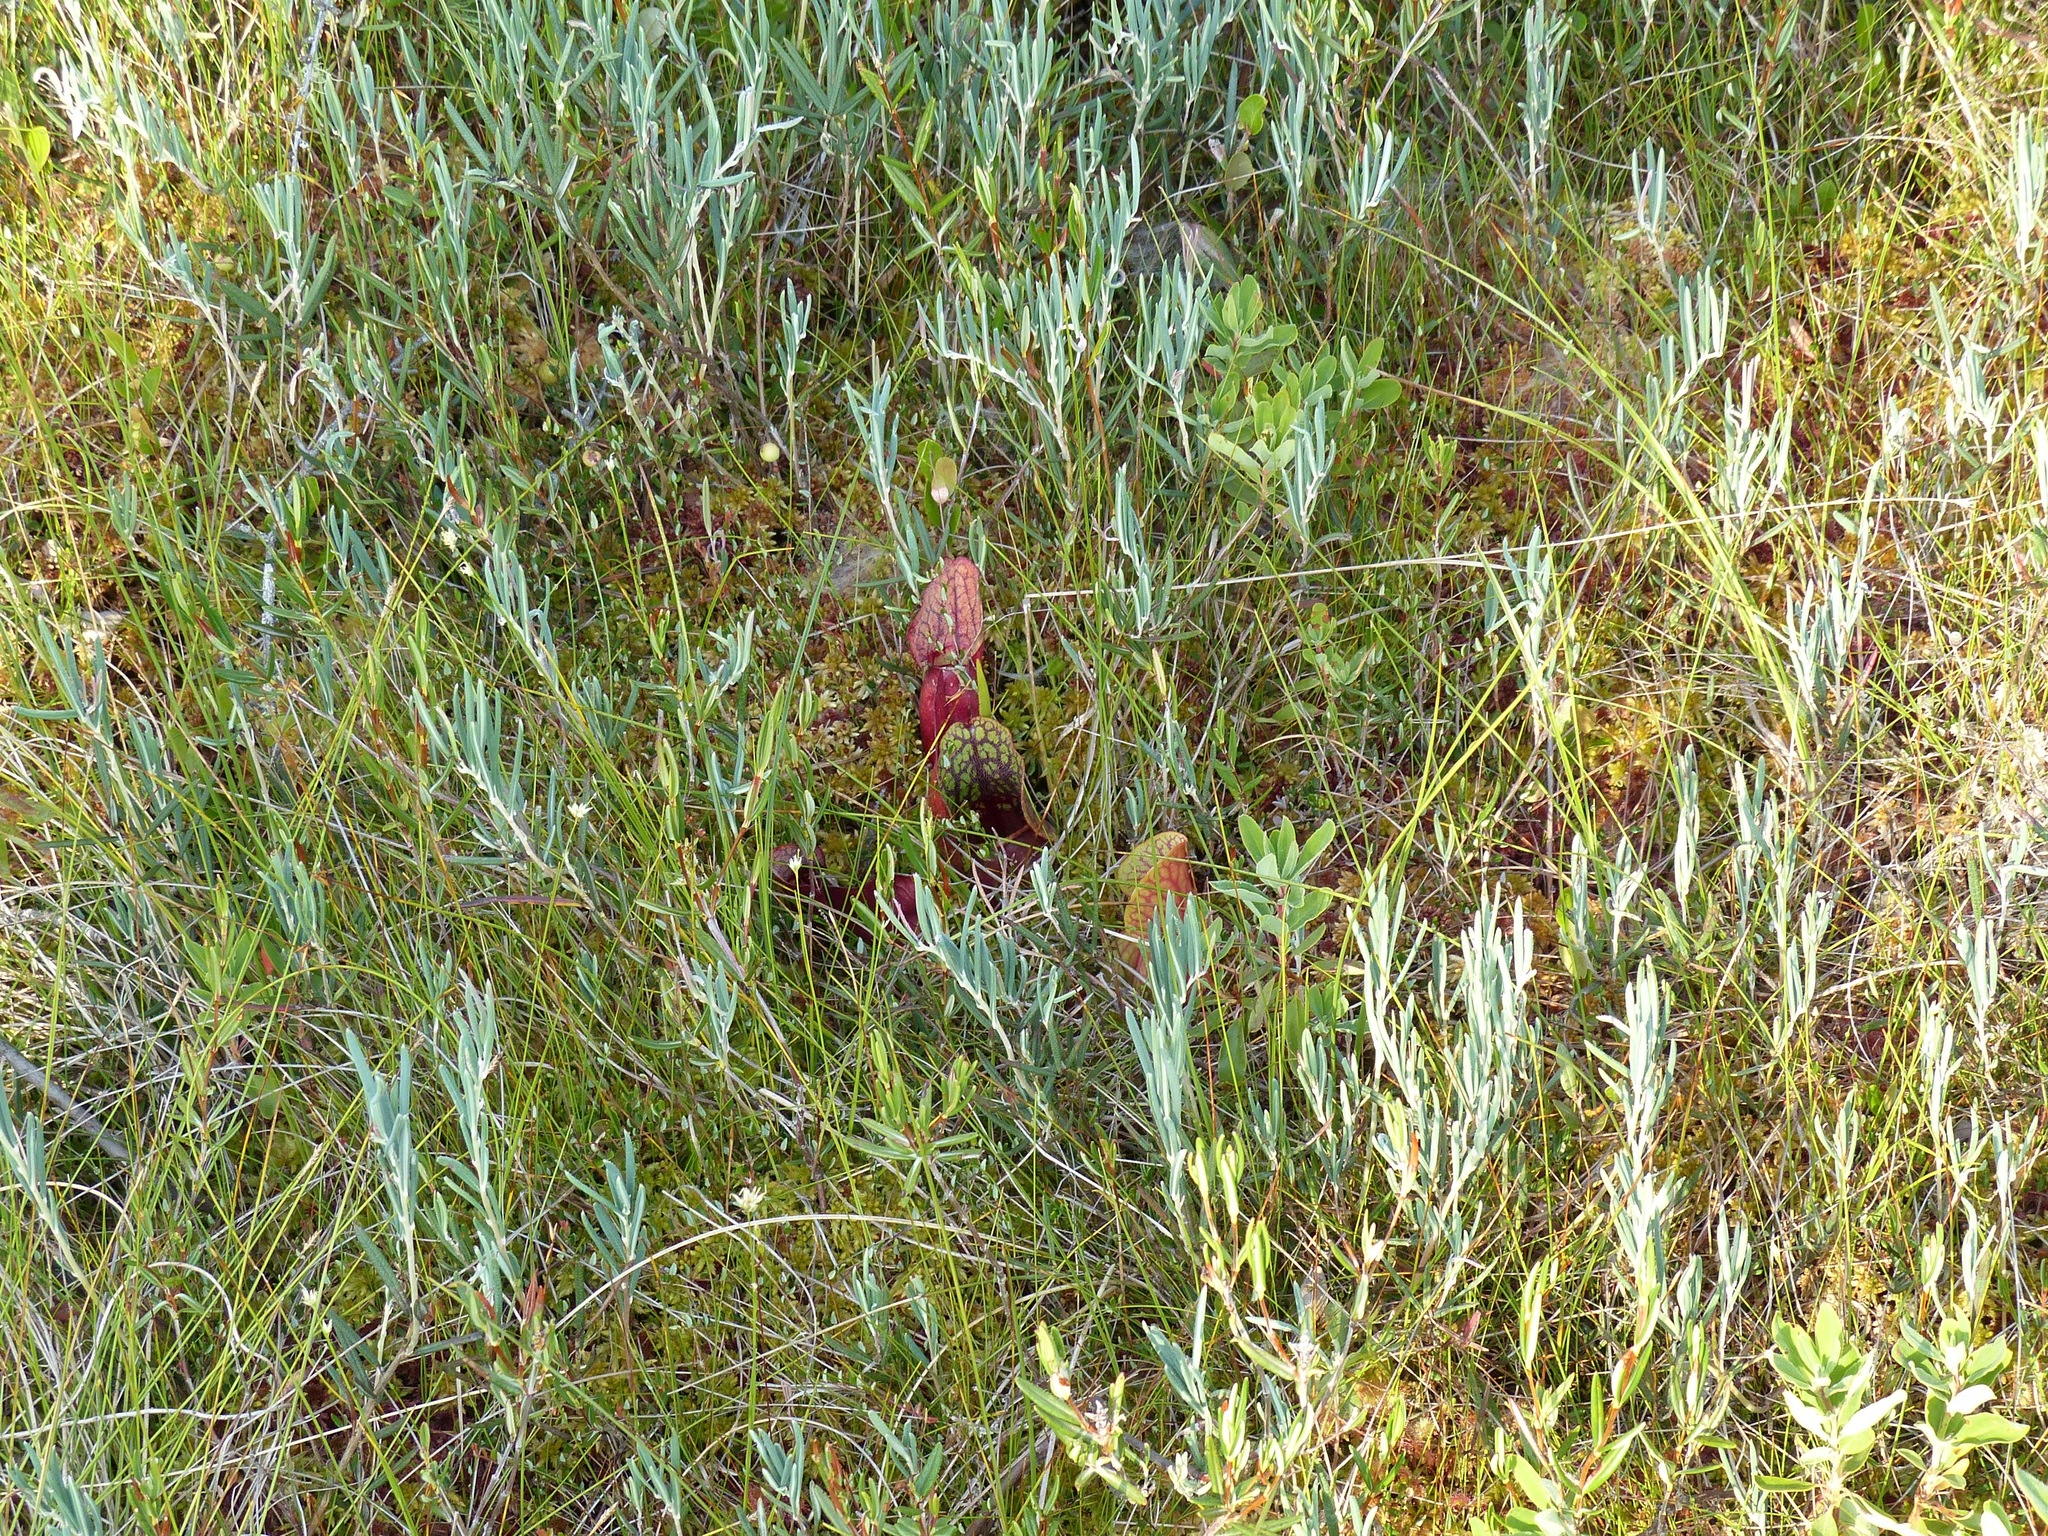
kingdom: Plantae
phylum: Tracheophyta
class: Magnoliopsida
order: Ericales
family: Ericaceae
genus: Andromeda
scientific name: Andromeda polifolia
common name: Bog-rosemary
